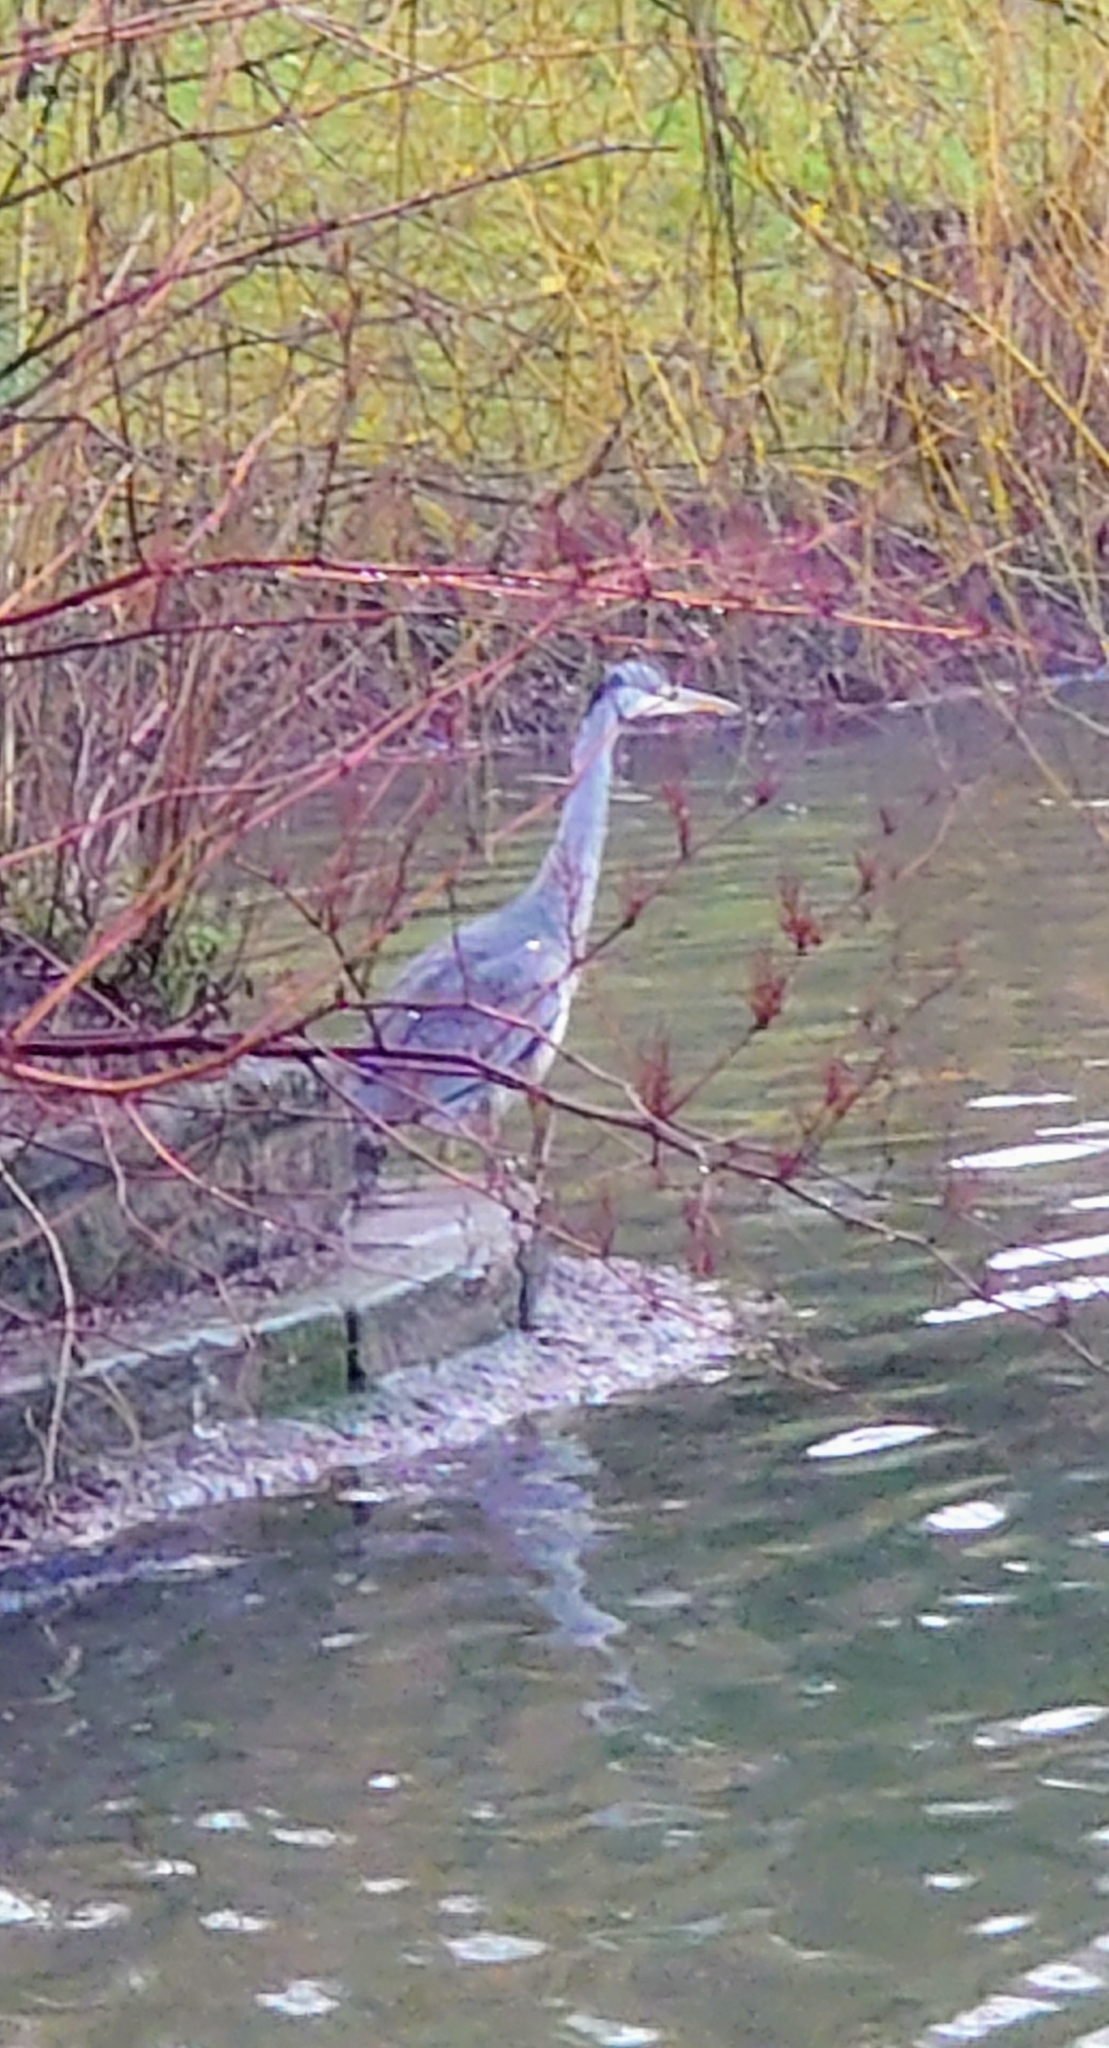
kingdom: Animalia
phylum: Chordata
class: Aves
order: Pelecaniformes
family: Ardeidae
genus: Ardea
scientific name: Ardea cinerea
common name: Grey heron
